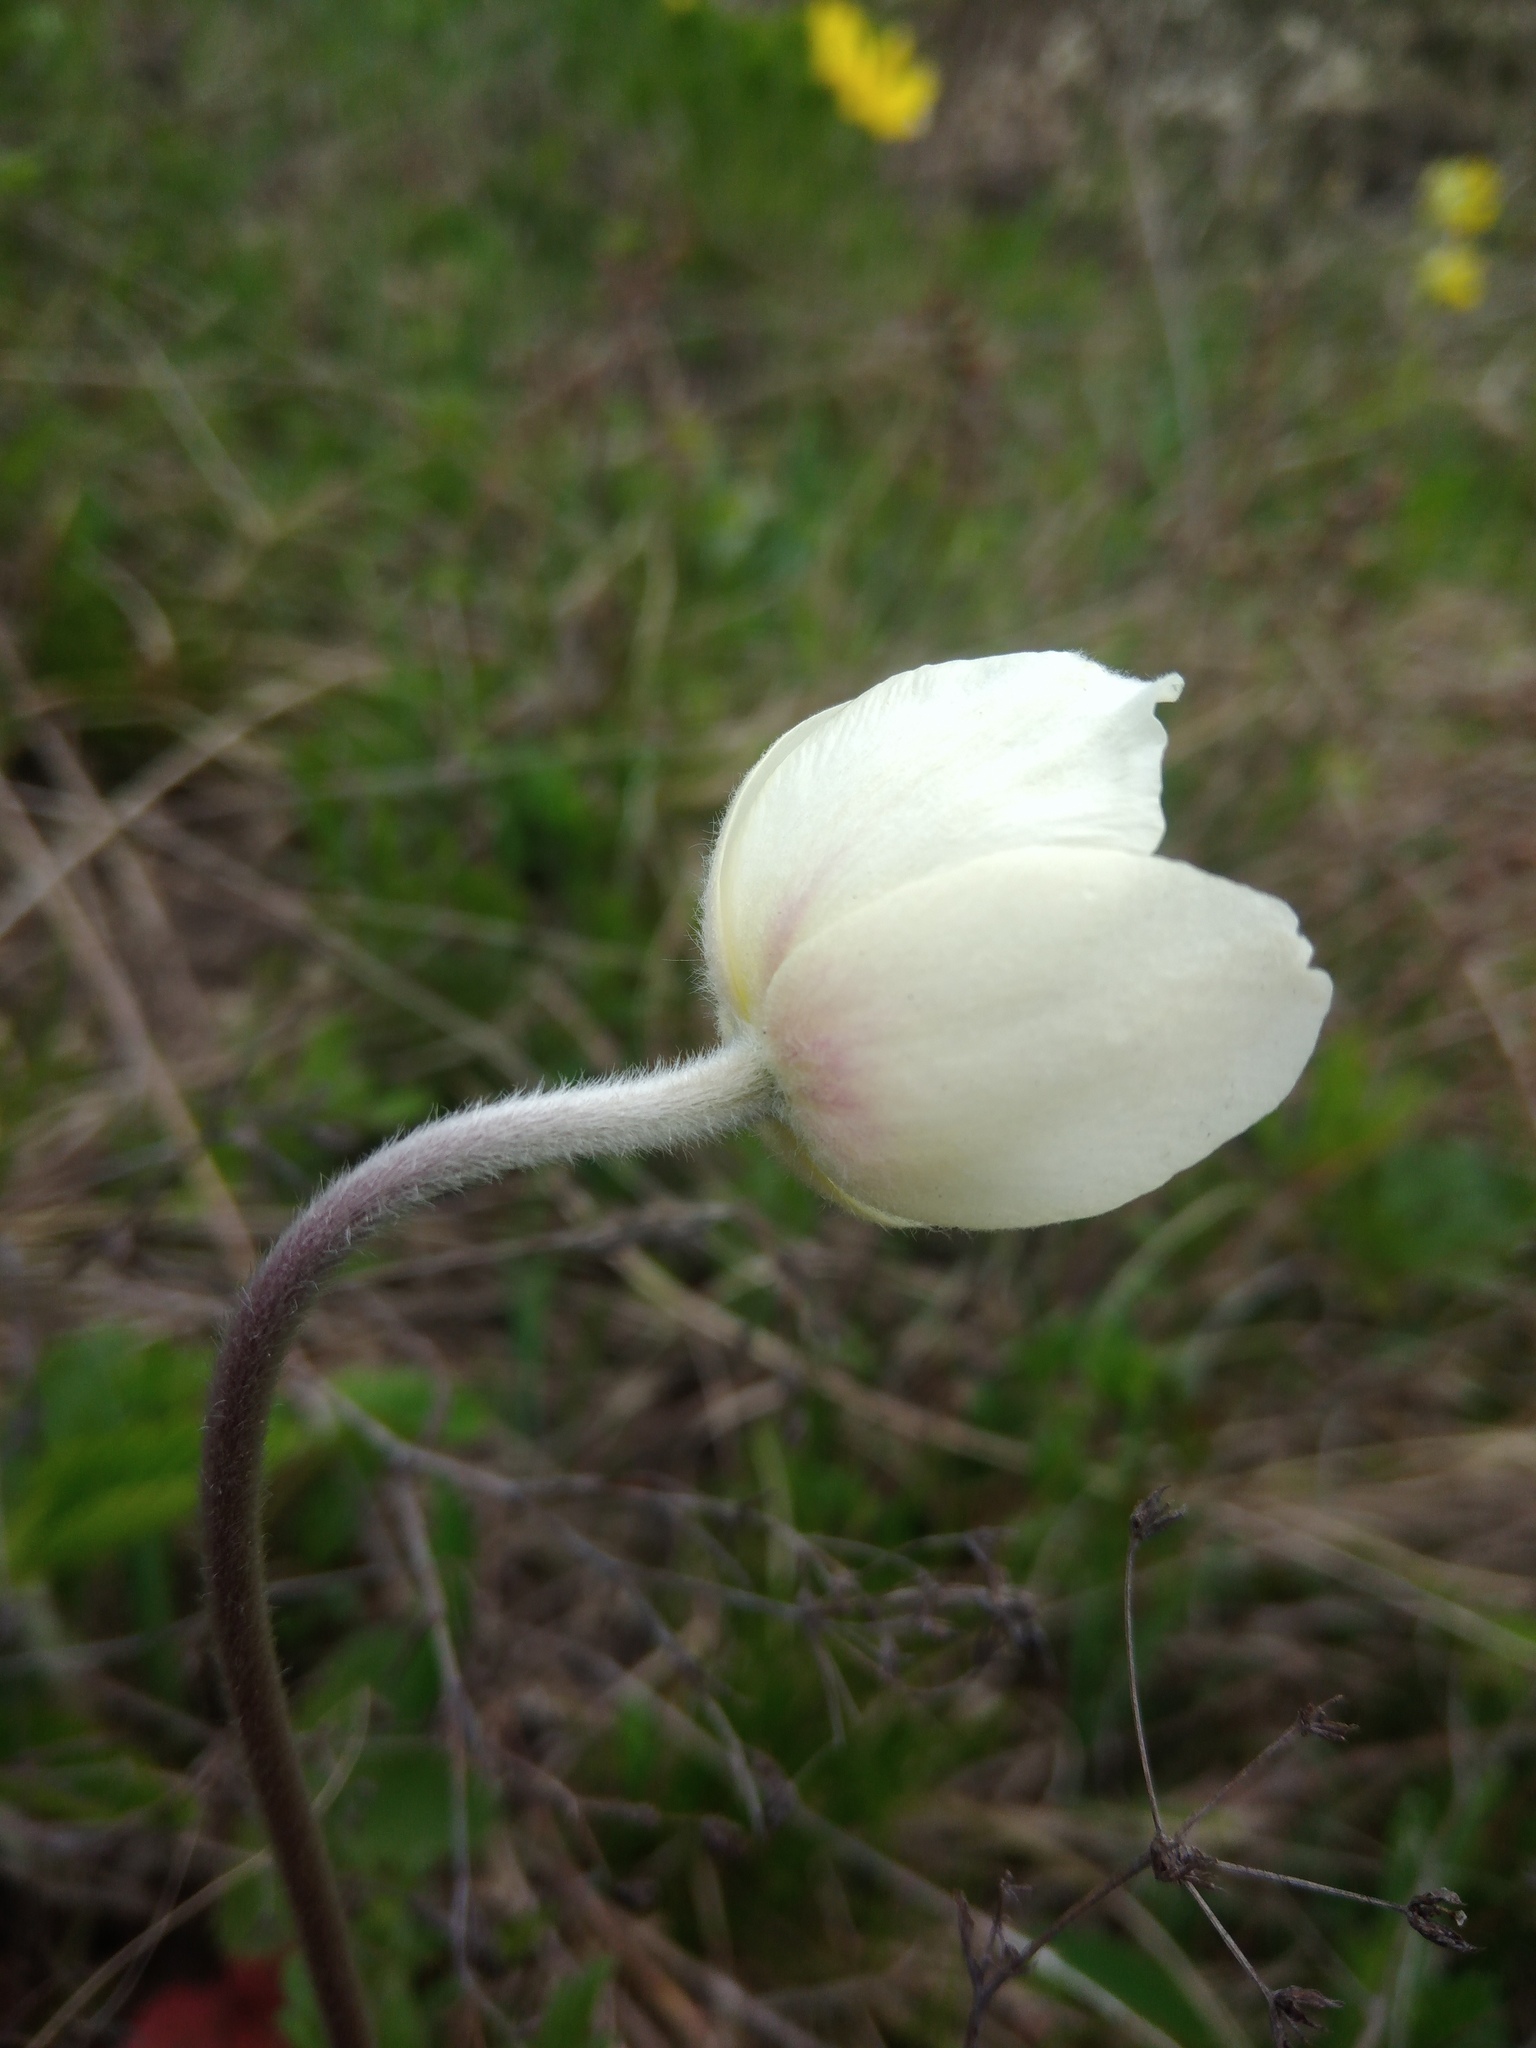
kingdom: Plantae
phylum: Tracheophyta
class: Magnoliopsida
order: Ranunculales
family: Ranunculaceae
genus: Anemone
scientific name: Anemone sylvestris
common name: Snowdrop anemone
